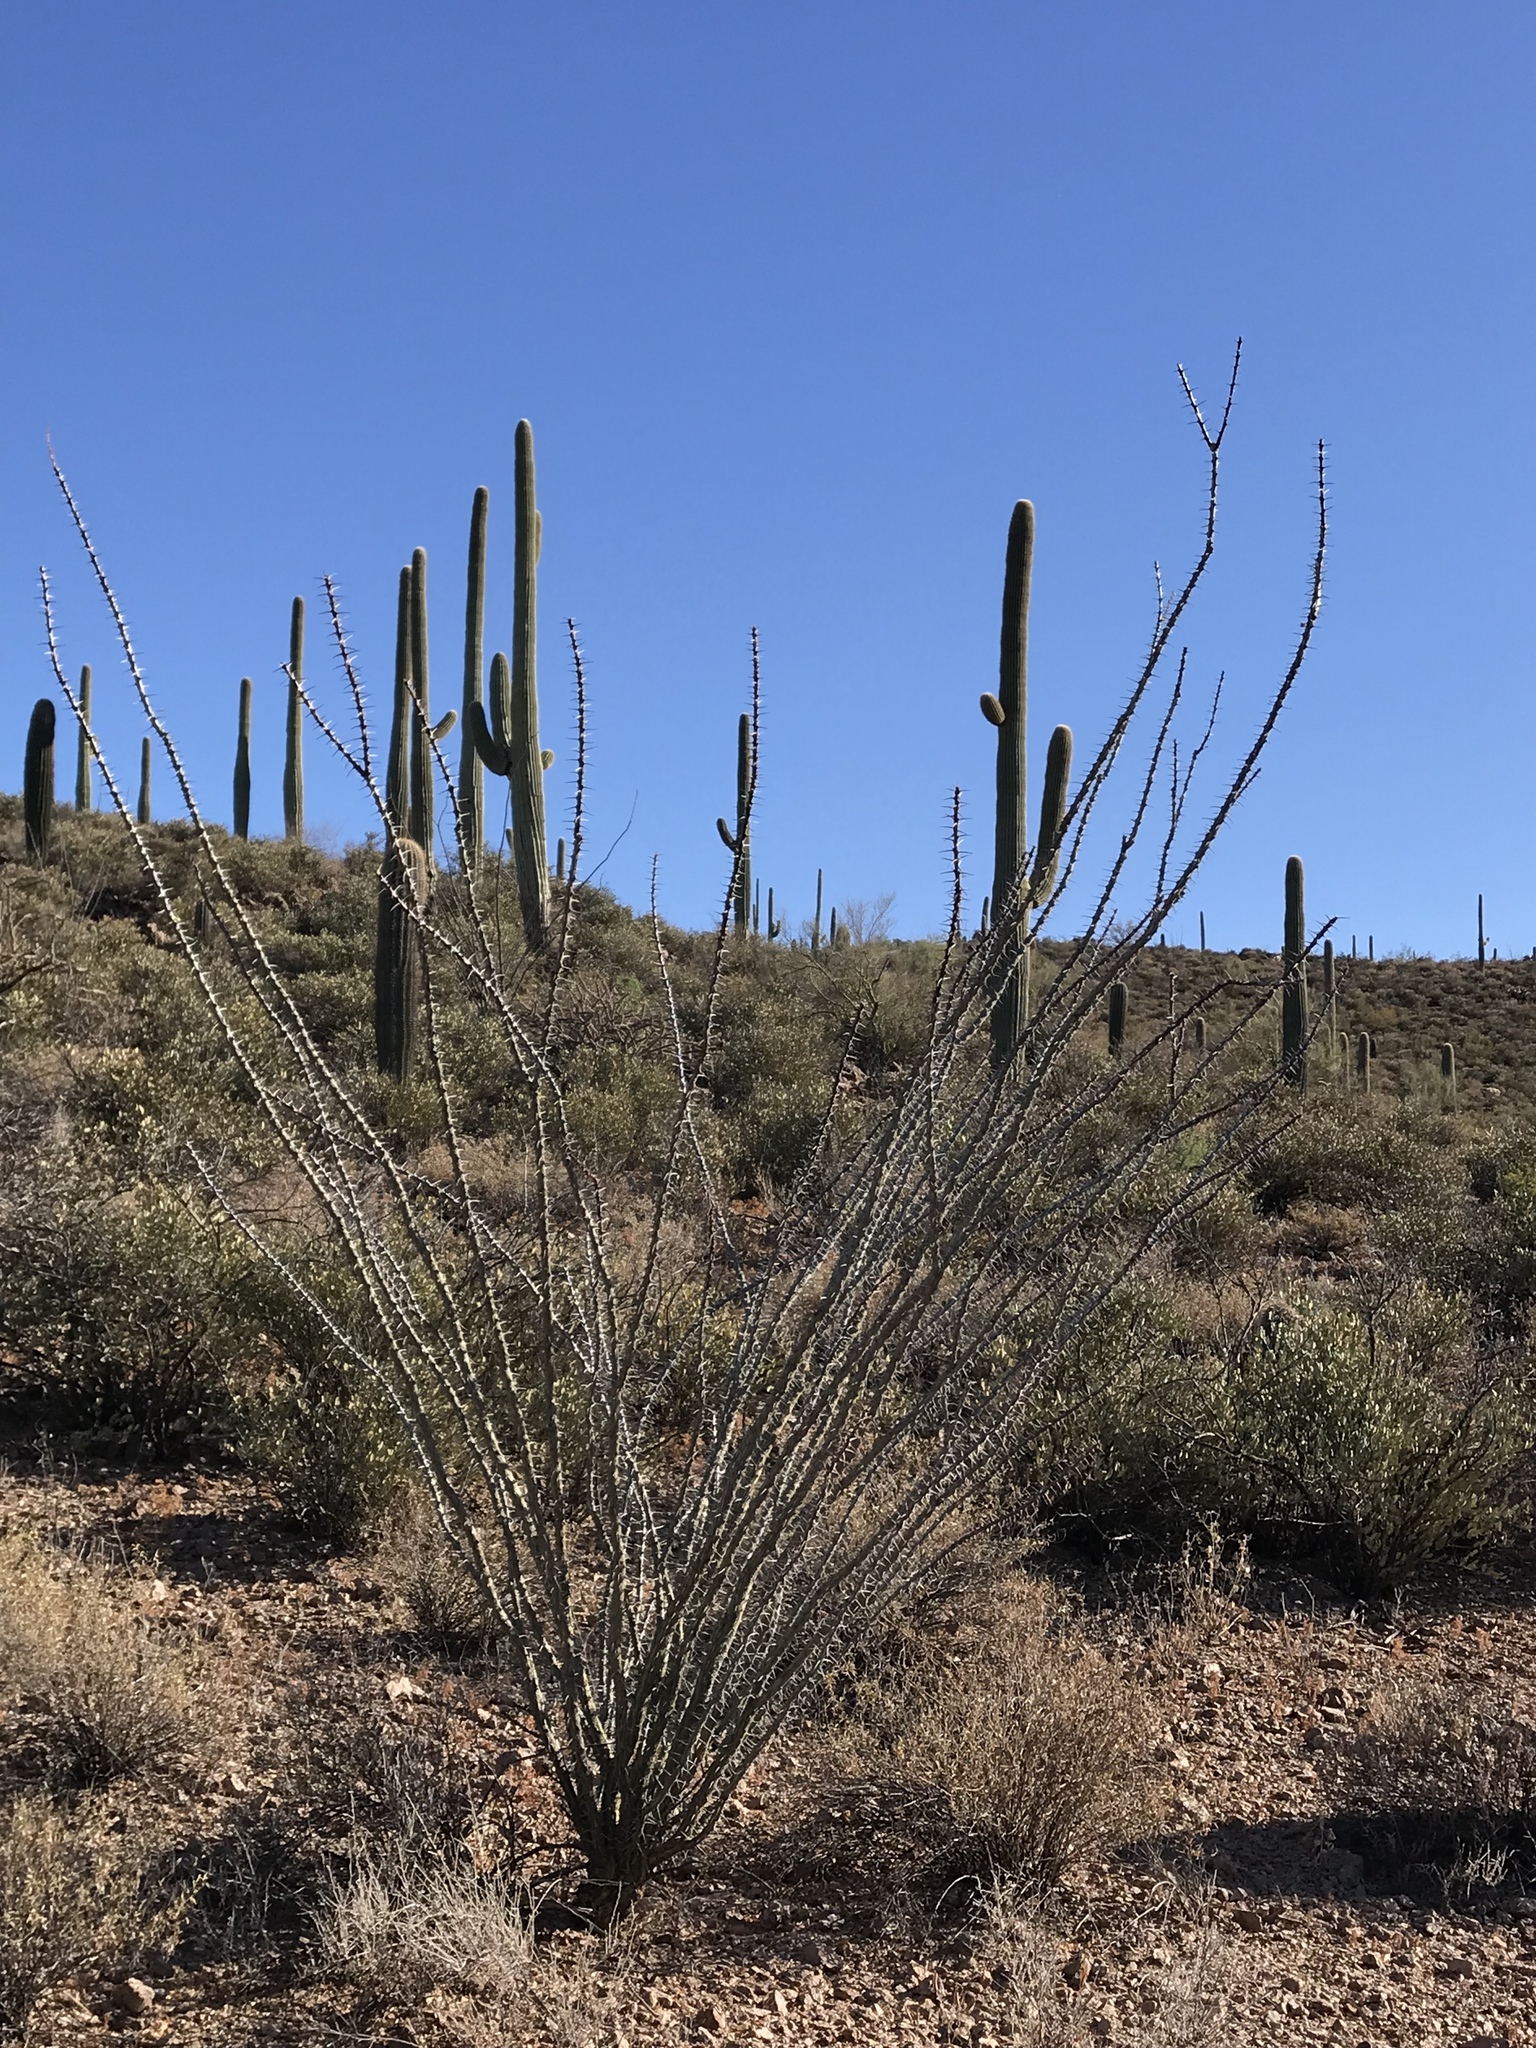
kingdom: Plantae
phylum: Tracheophyta
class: Magnoliopsida
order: Ericales
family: Fouquieriaceae
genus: Fouquieria
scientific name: Fouquieria splendens
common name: Vine-cactus
